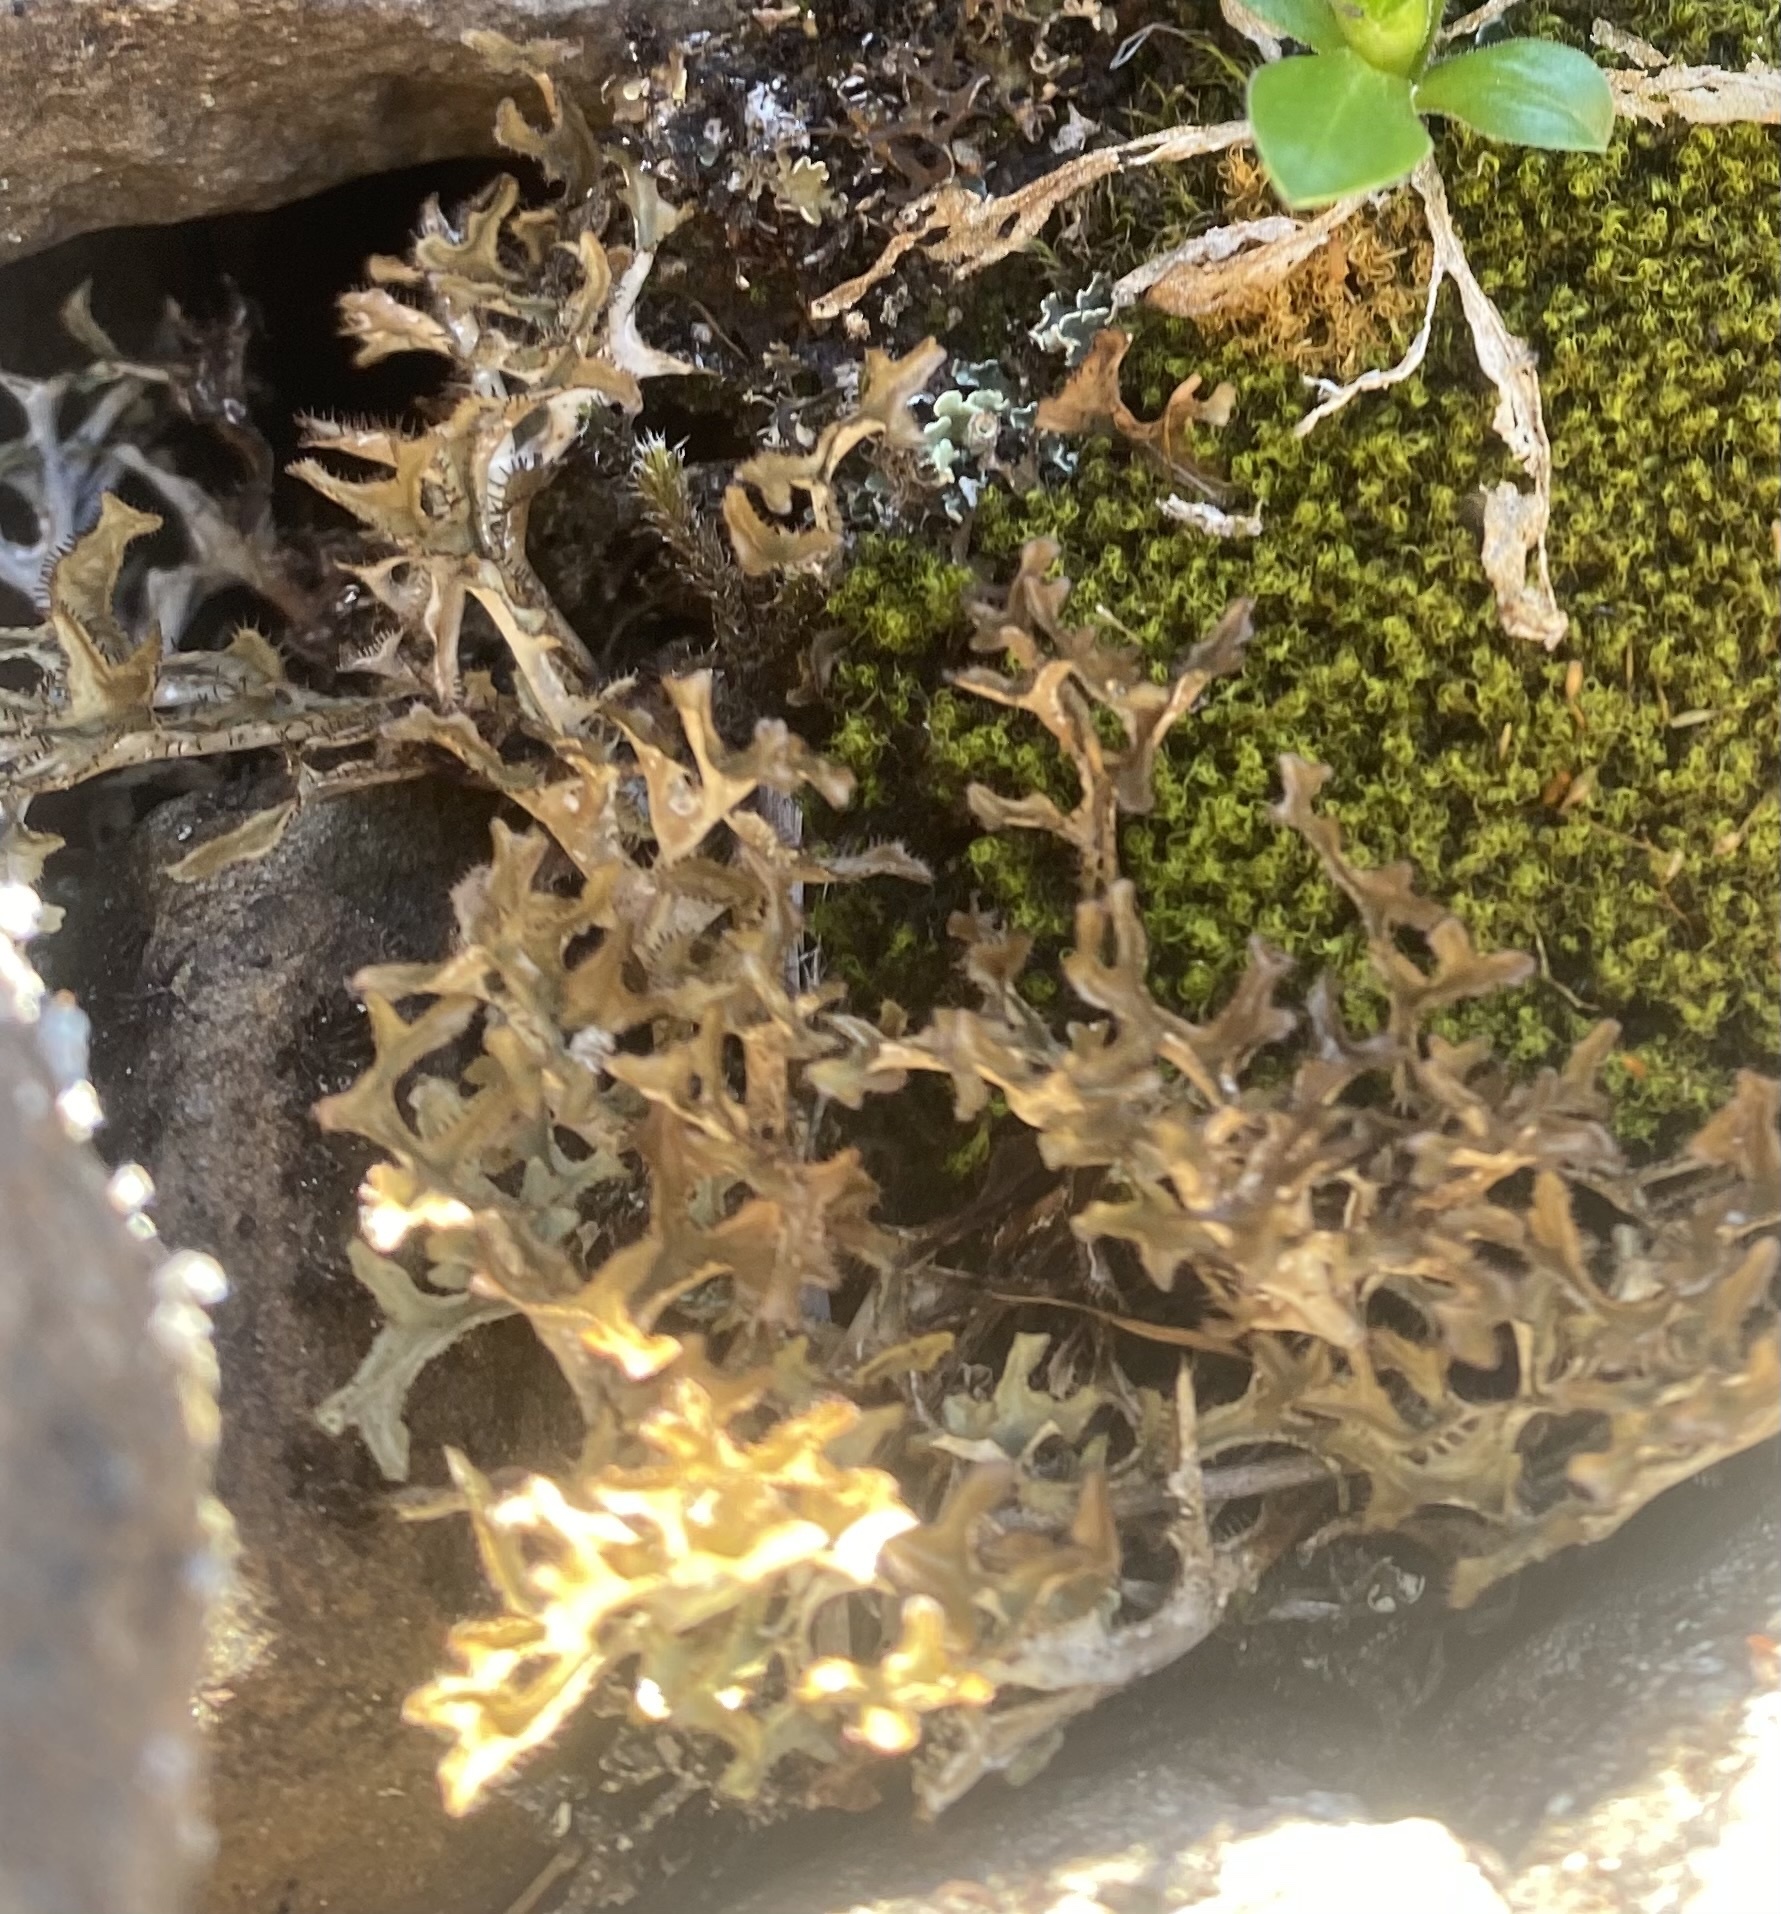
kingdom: Fungi
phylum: Ascomycota
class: Lecanoromycetes
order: Lecanorales
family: Parmeliaceae
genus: Cetraria
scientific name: Cetraria islandica
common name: Iceland lichen
